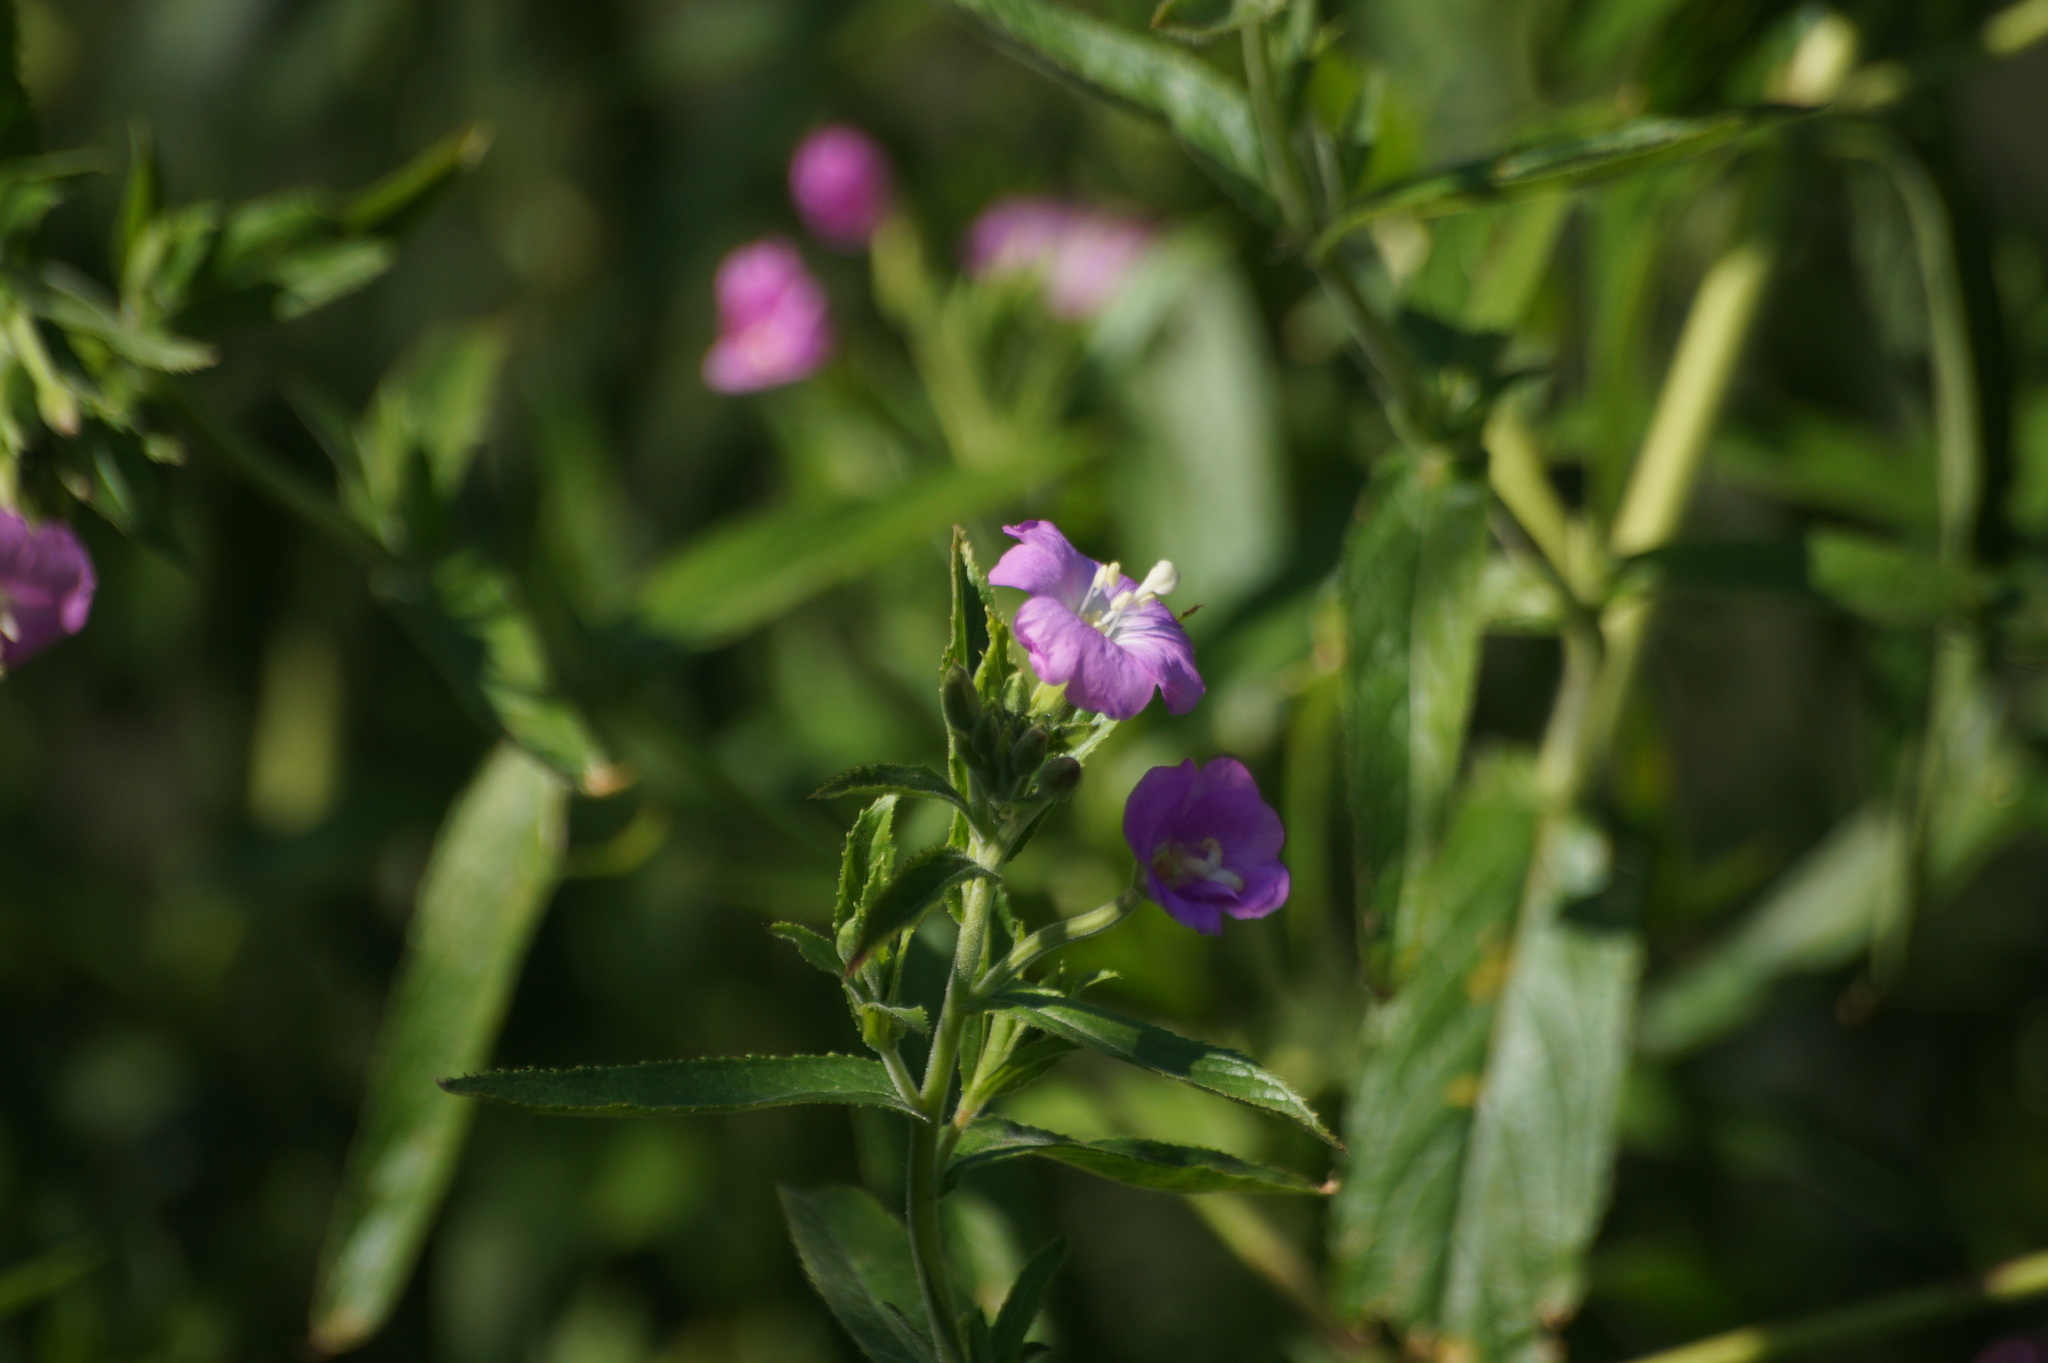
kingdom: Plantae
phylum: Tracheophyta
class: Magnoliopsida
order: Myrtales
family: Onagraceae
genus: Epilobium
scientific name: Epilobium hirsutum
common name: Great willowherb
